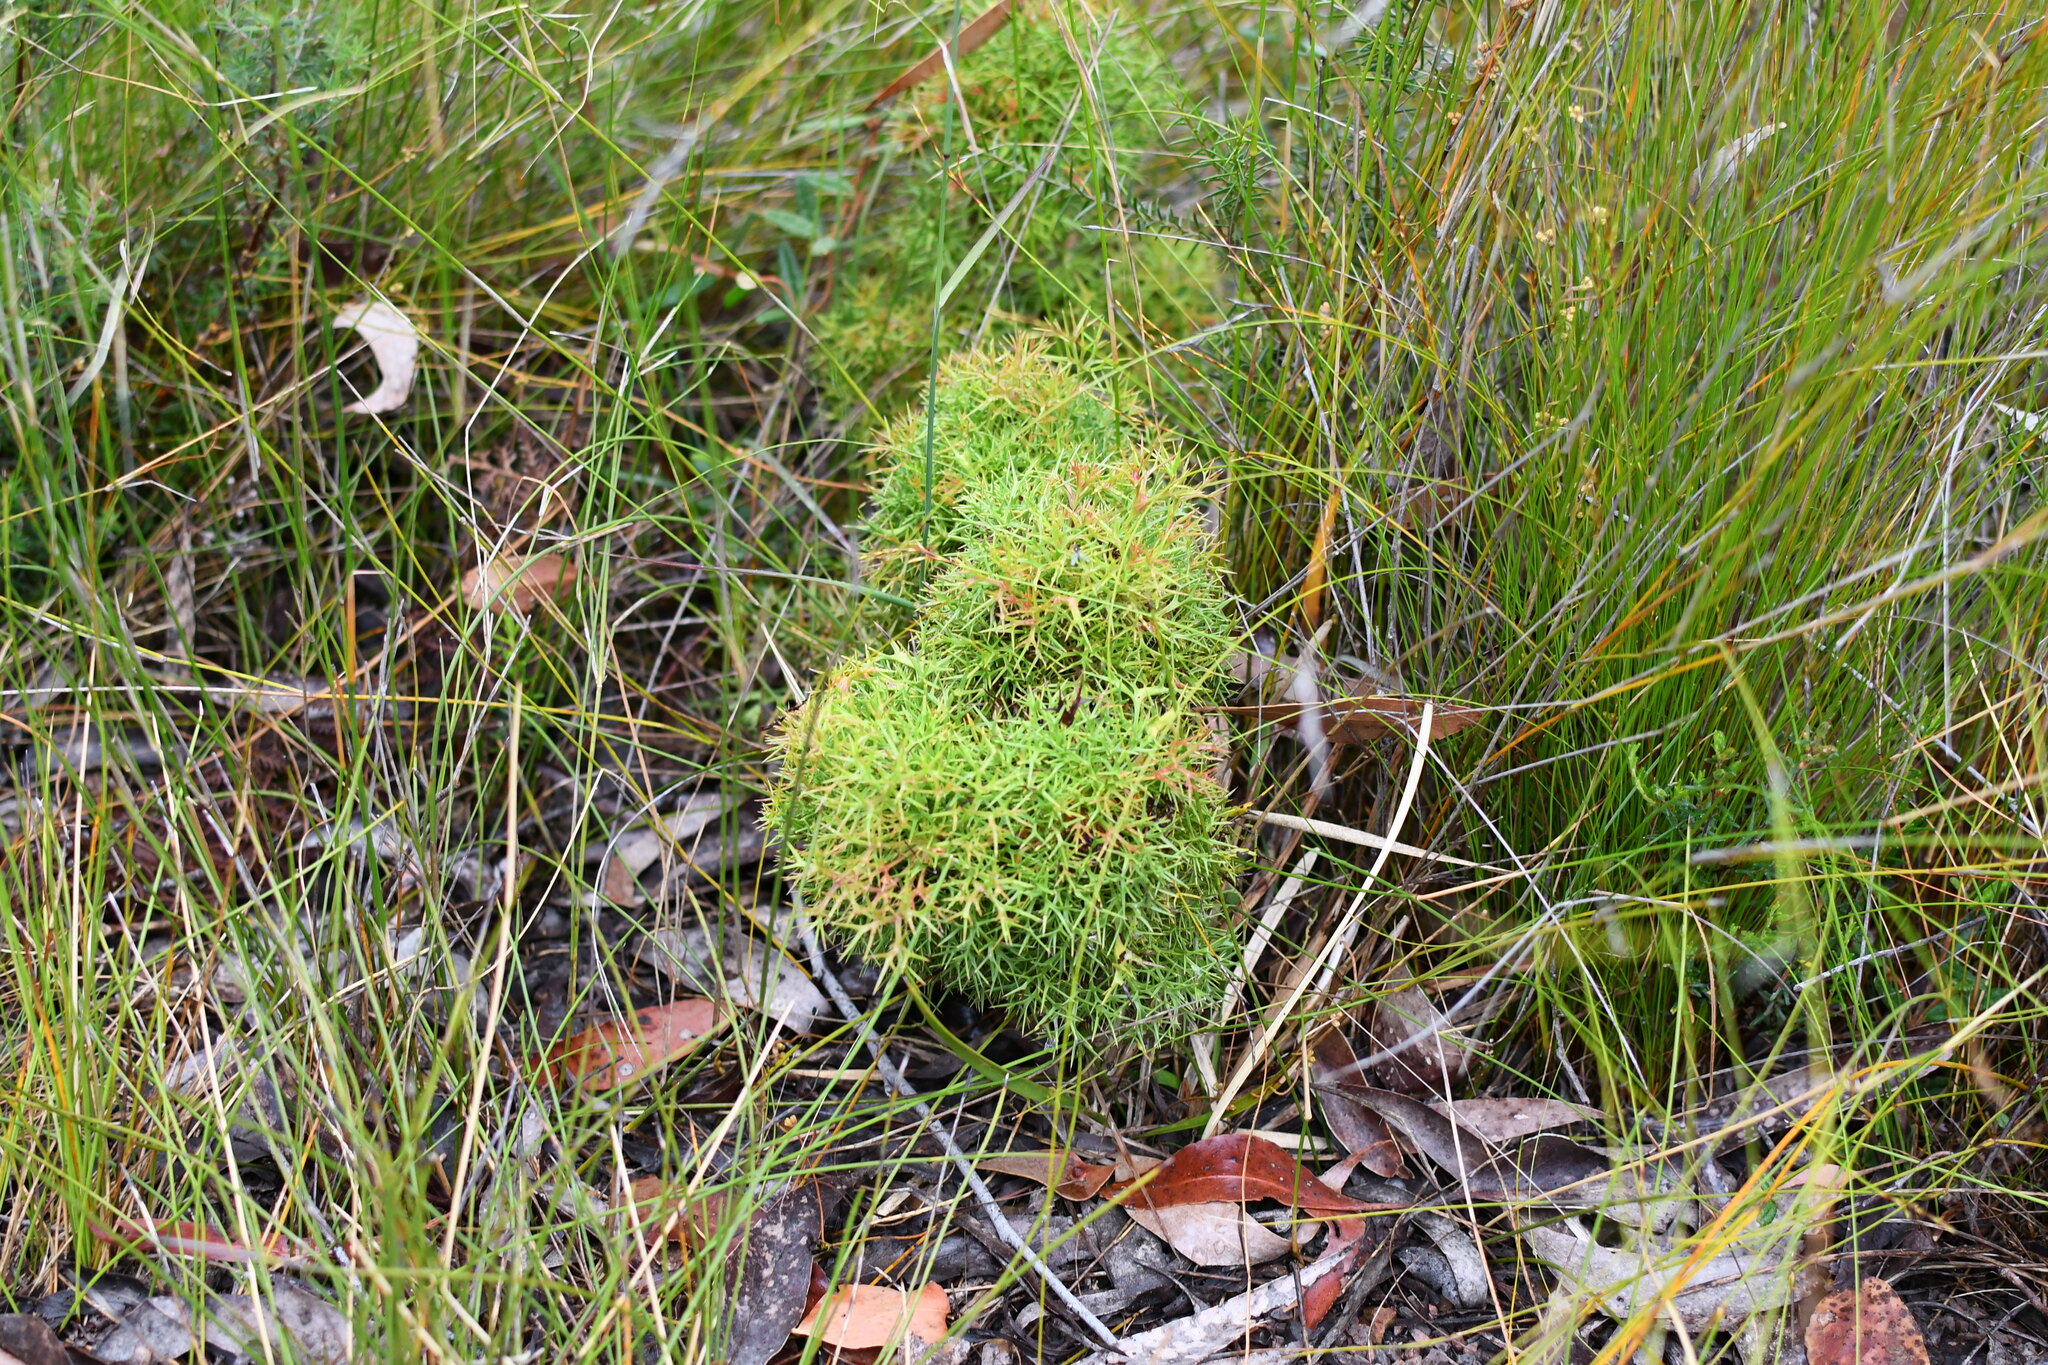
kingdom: Plantae
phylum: Tracheophyta
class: Magnoliopsida
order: Proteales
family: Proteaceae
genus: Isopogon
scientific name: Isopogon ceratophyllus
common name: Horny cone-bush
